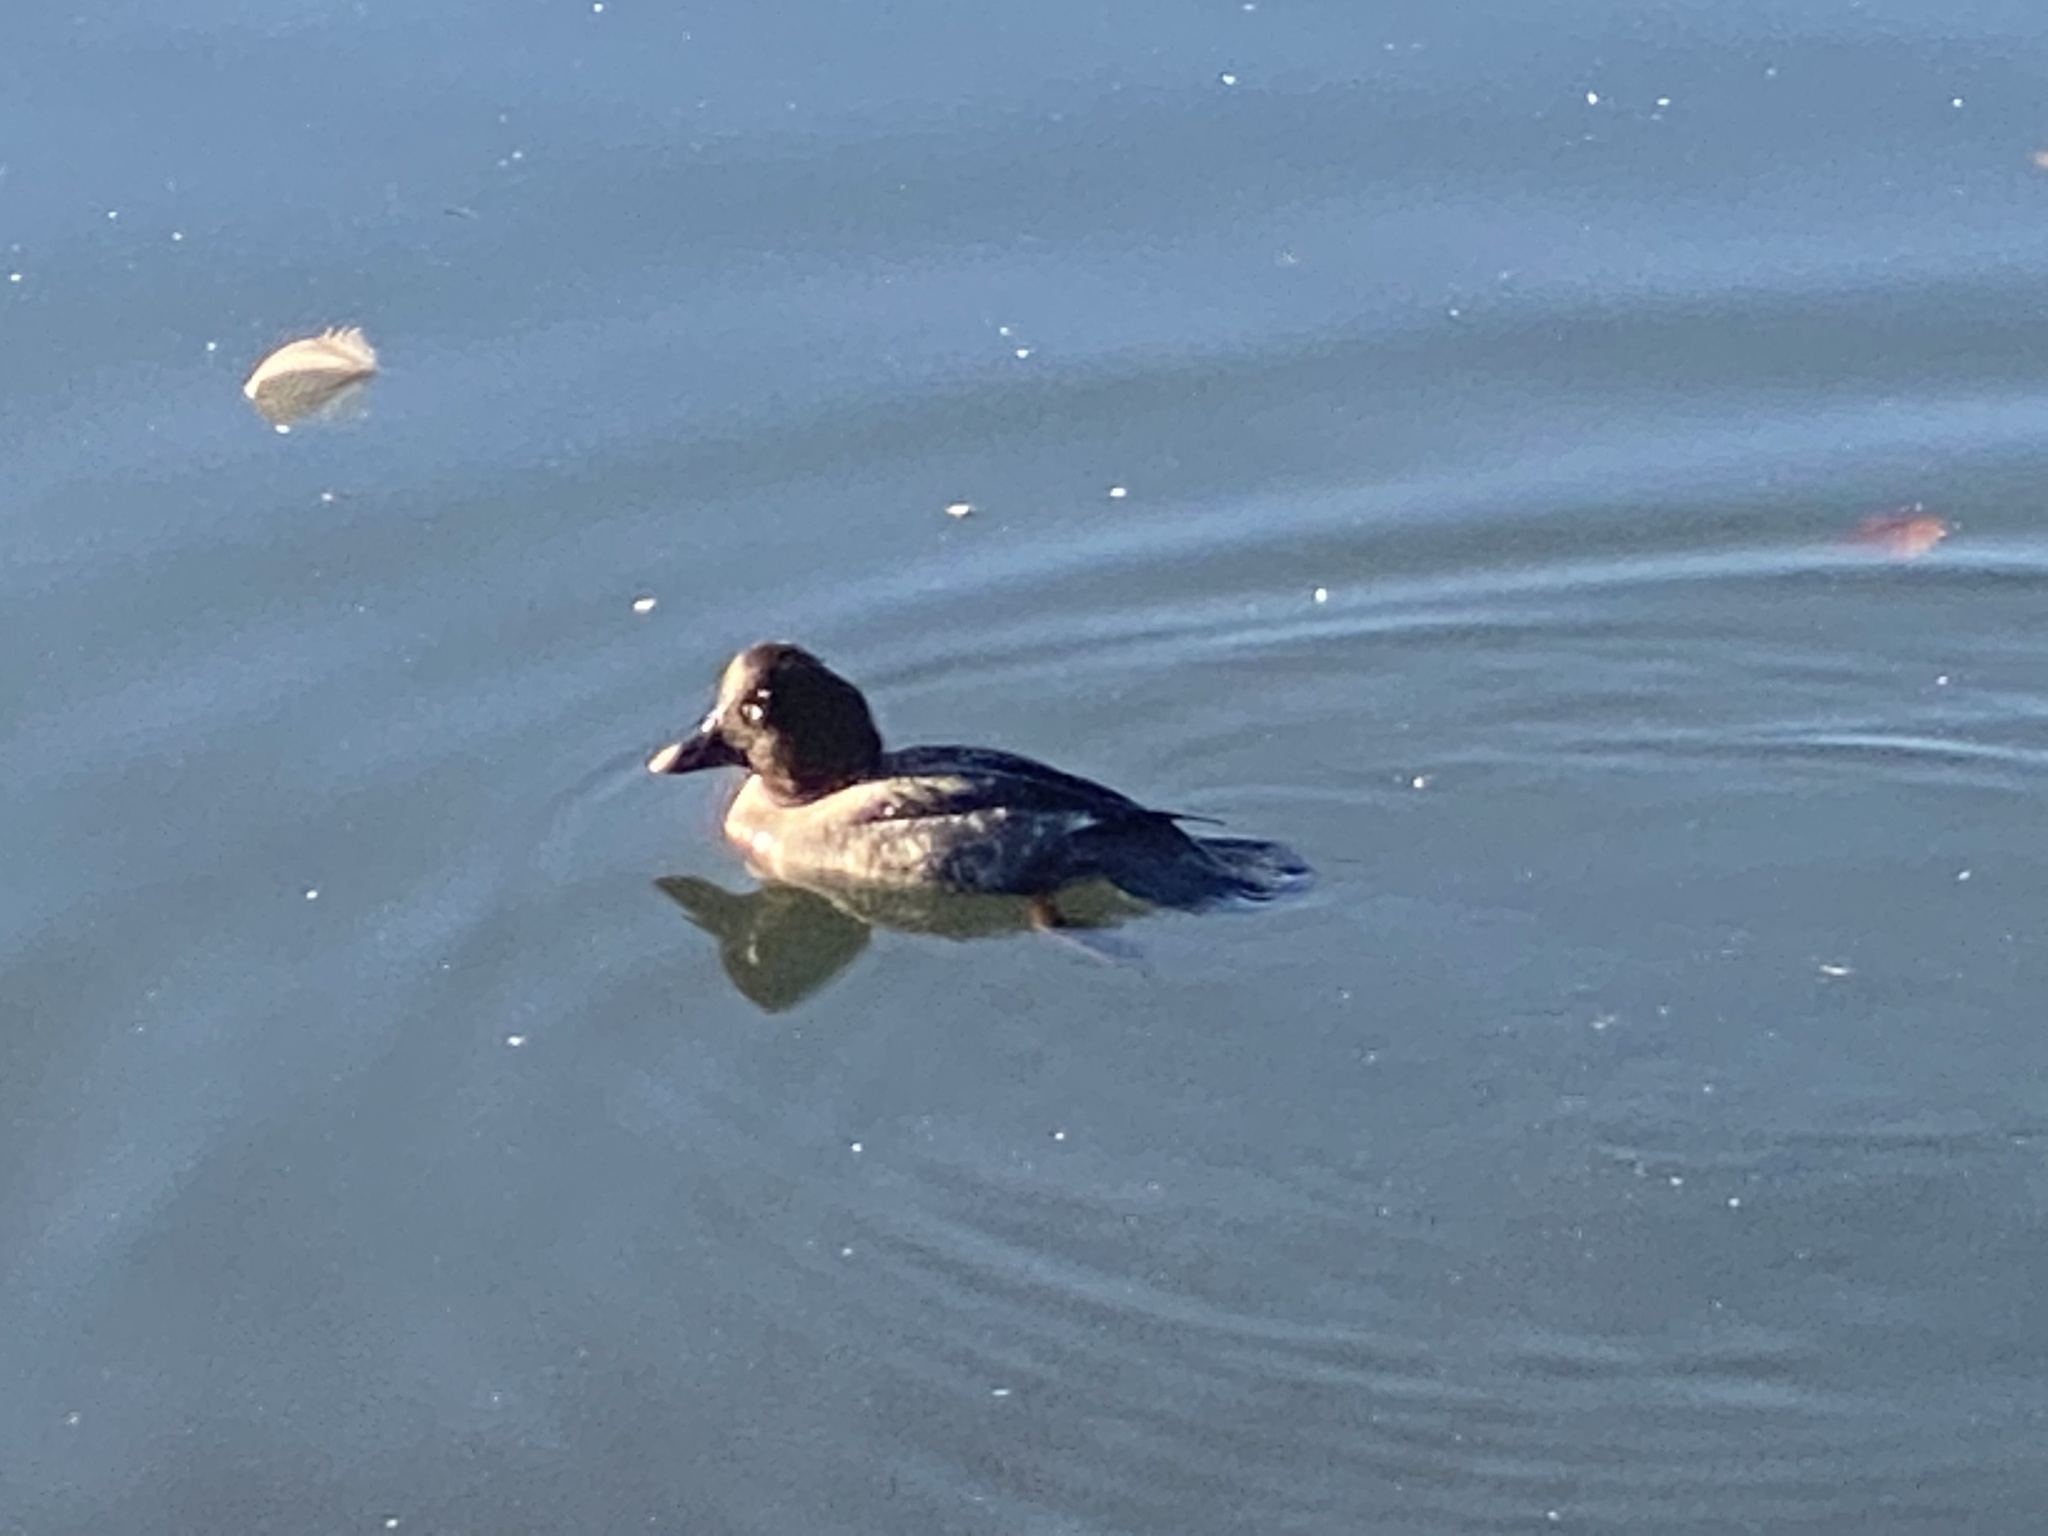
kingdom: Animalia
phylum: Chordata
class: Aves
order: Anseriformes
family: Anatidae
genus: Bucephala
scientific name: Bucephala clangula
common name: Common goldeneye
